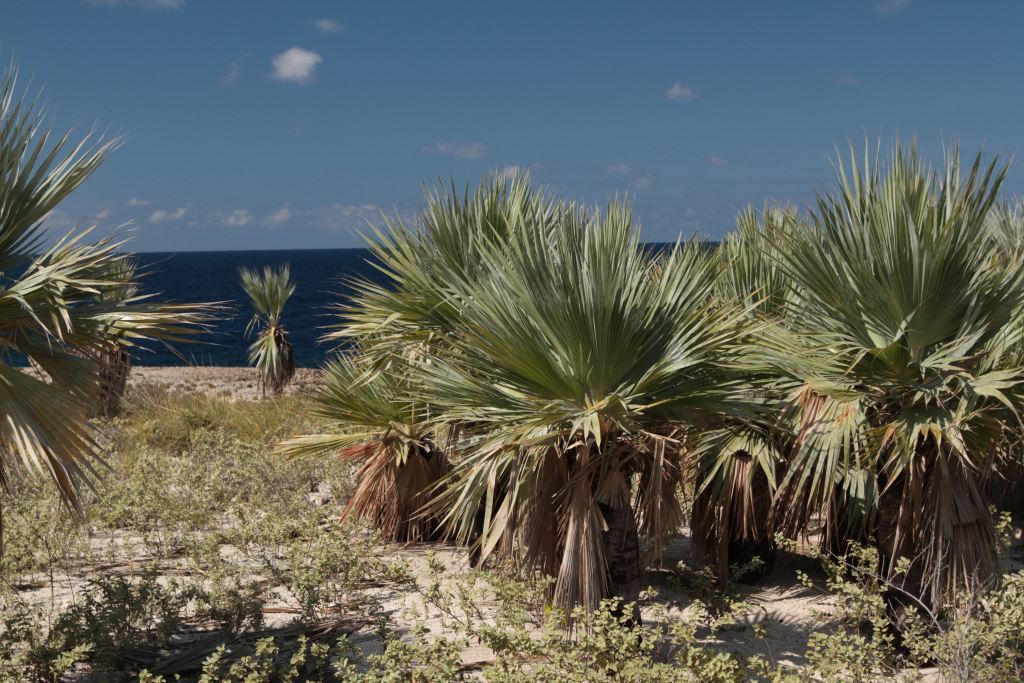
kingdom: Plantae
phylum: Tracheophyta
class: Liliopsida
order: Arecales
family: Arecaceae
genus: Copernicia
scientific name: Copernicia ekmanii
